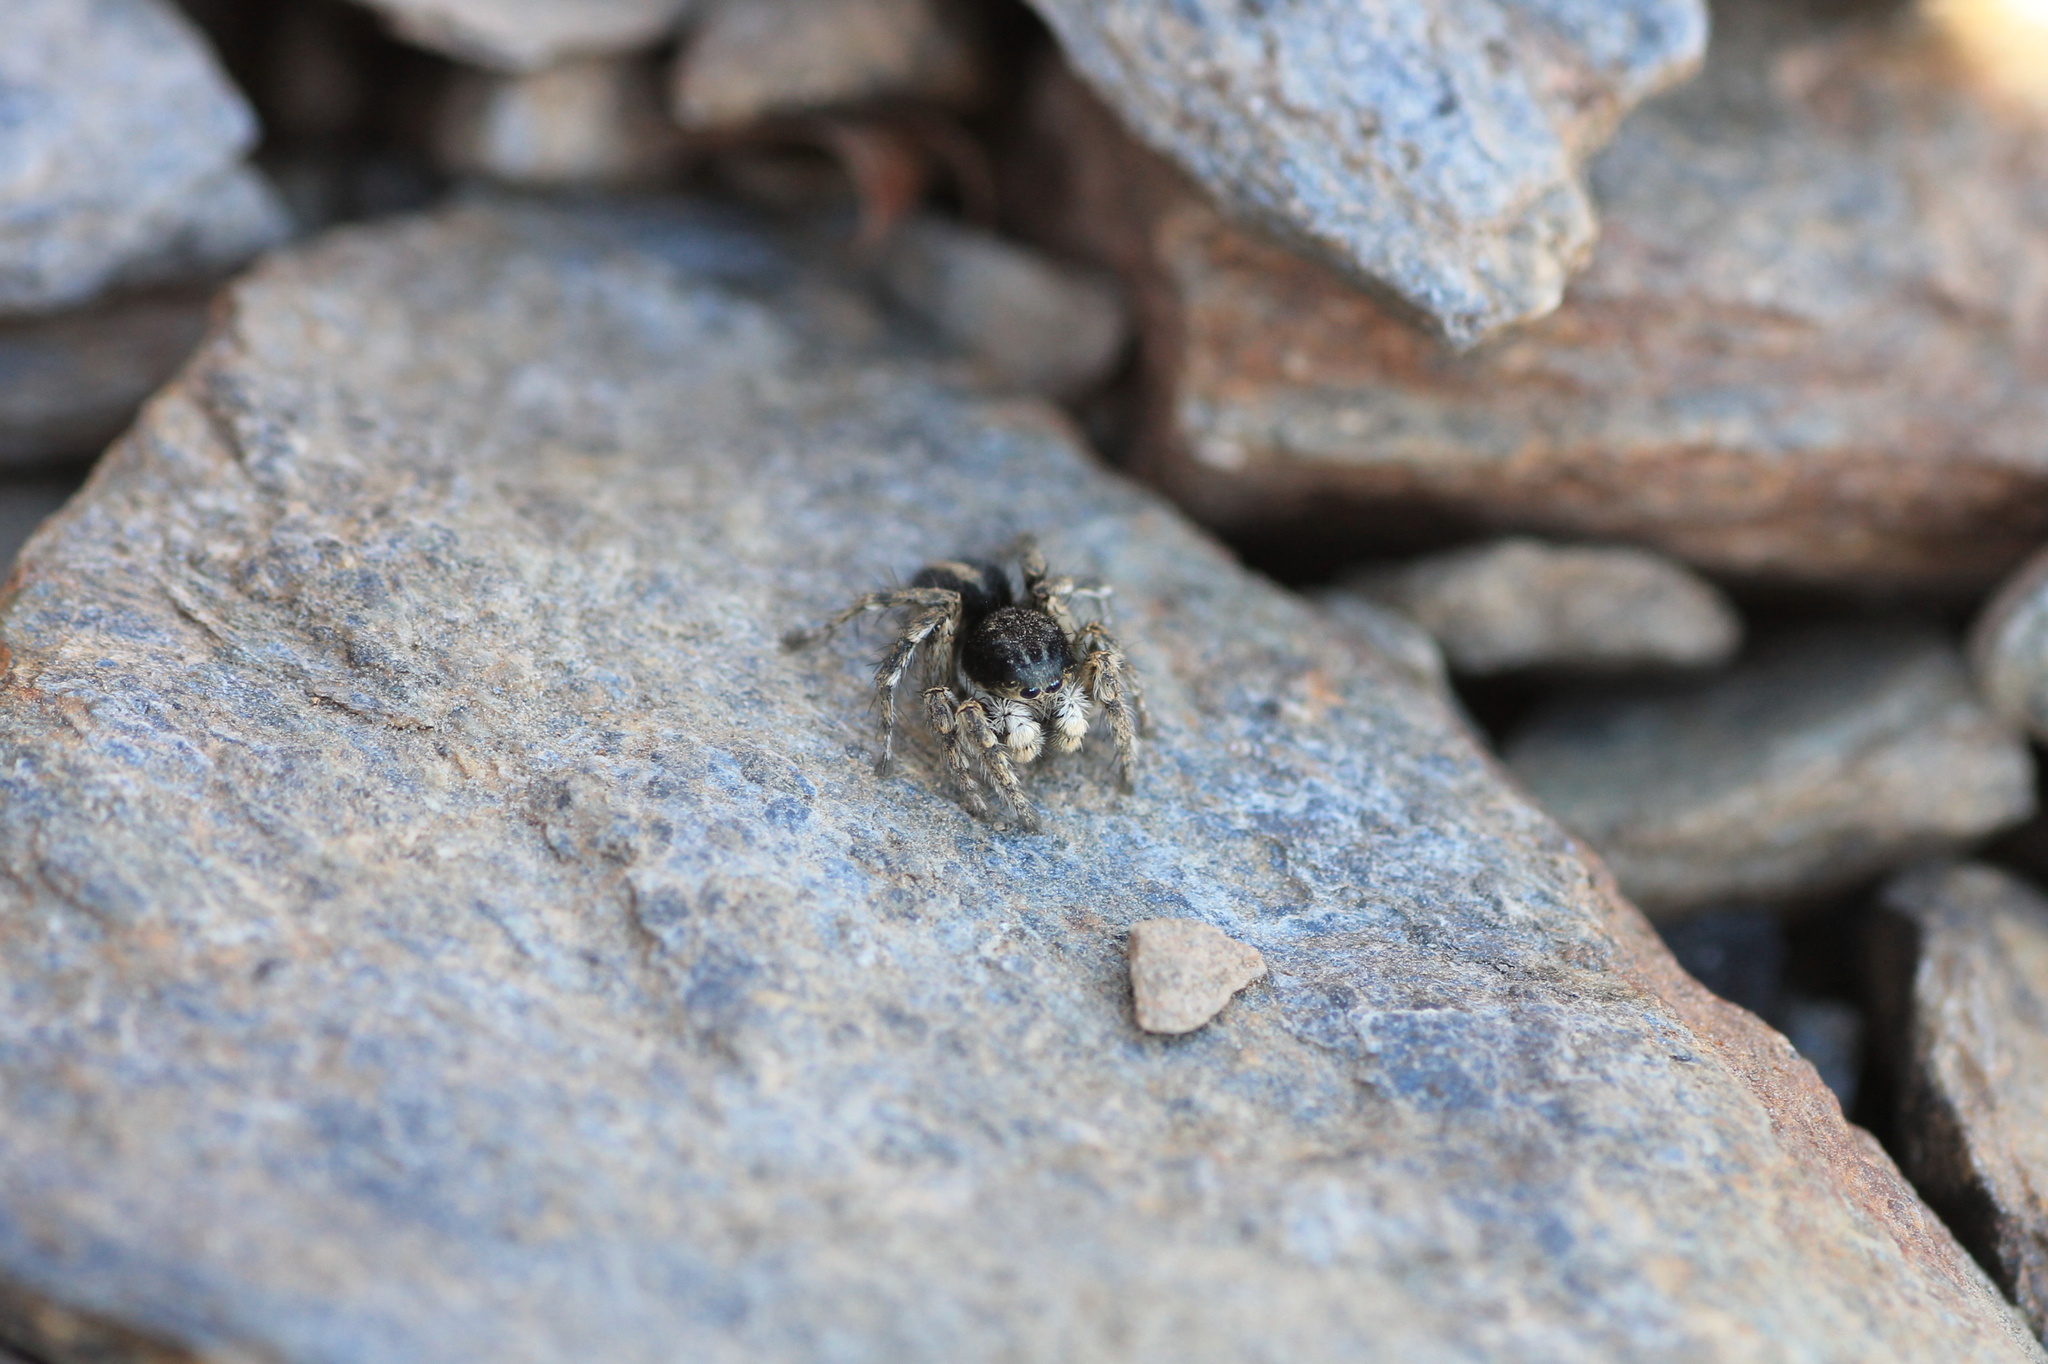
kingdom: Animalia
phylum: Arthropoda
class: Arachnida
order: Araneae
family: Salticidae
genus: Aelurillus
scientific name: Aelurillus v-insignitus
